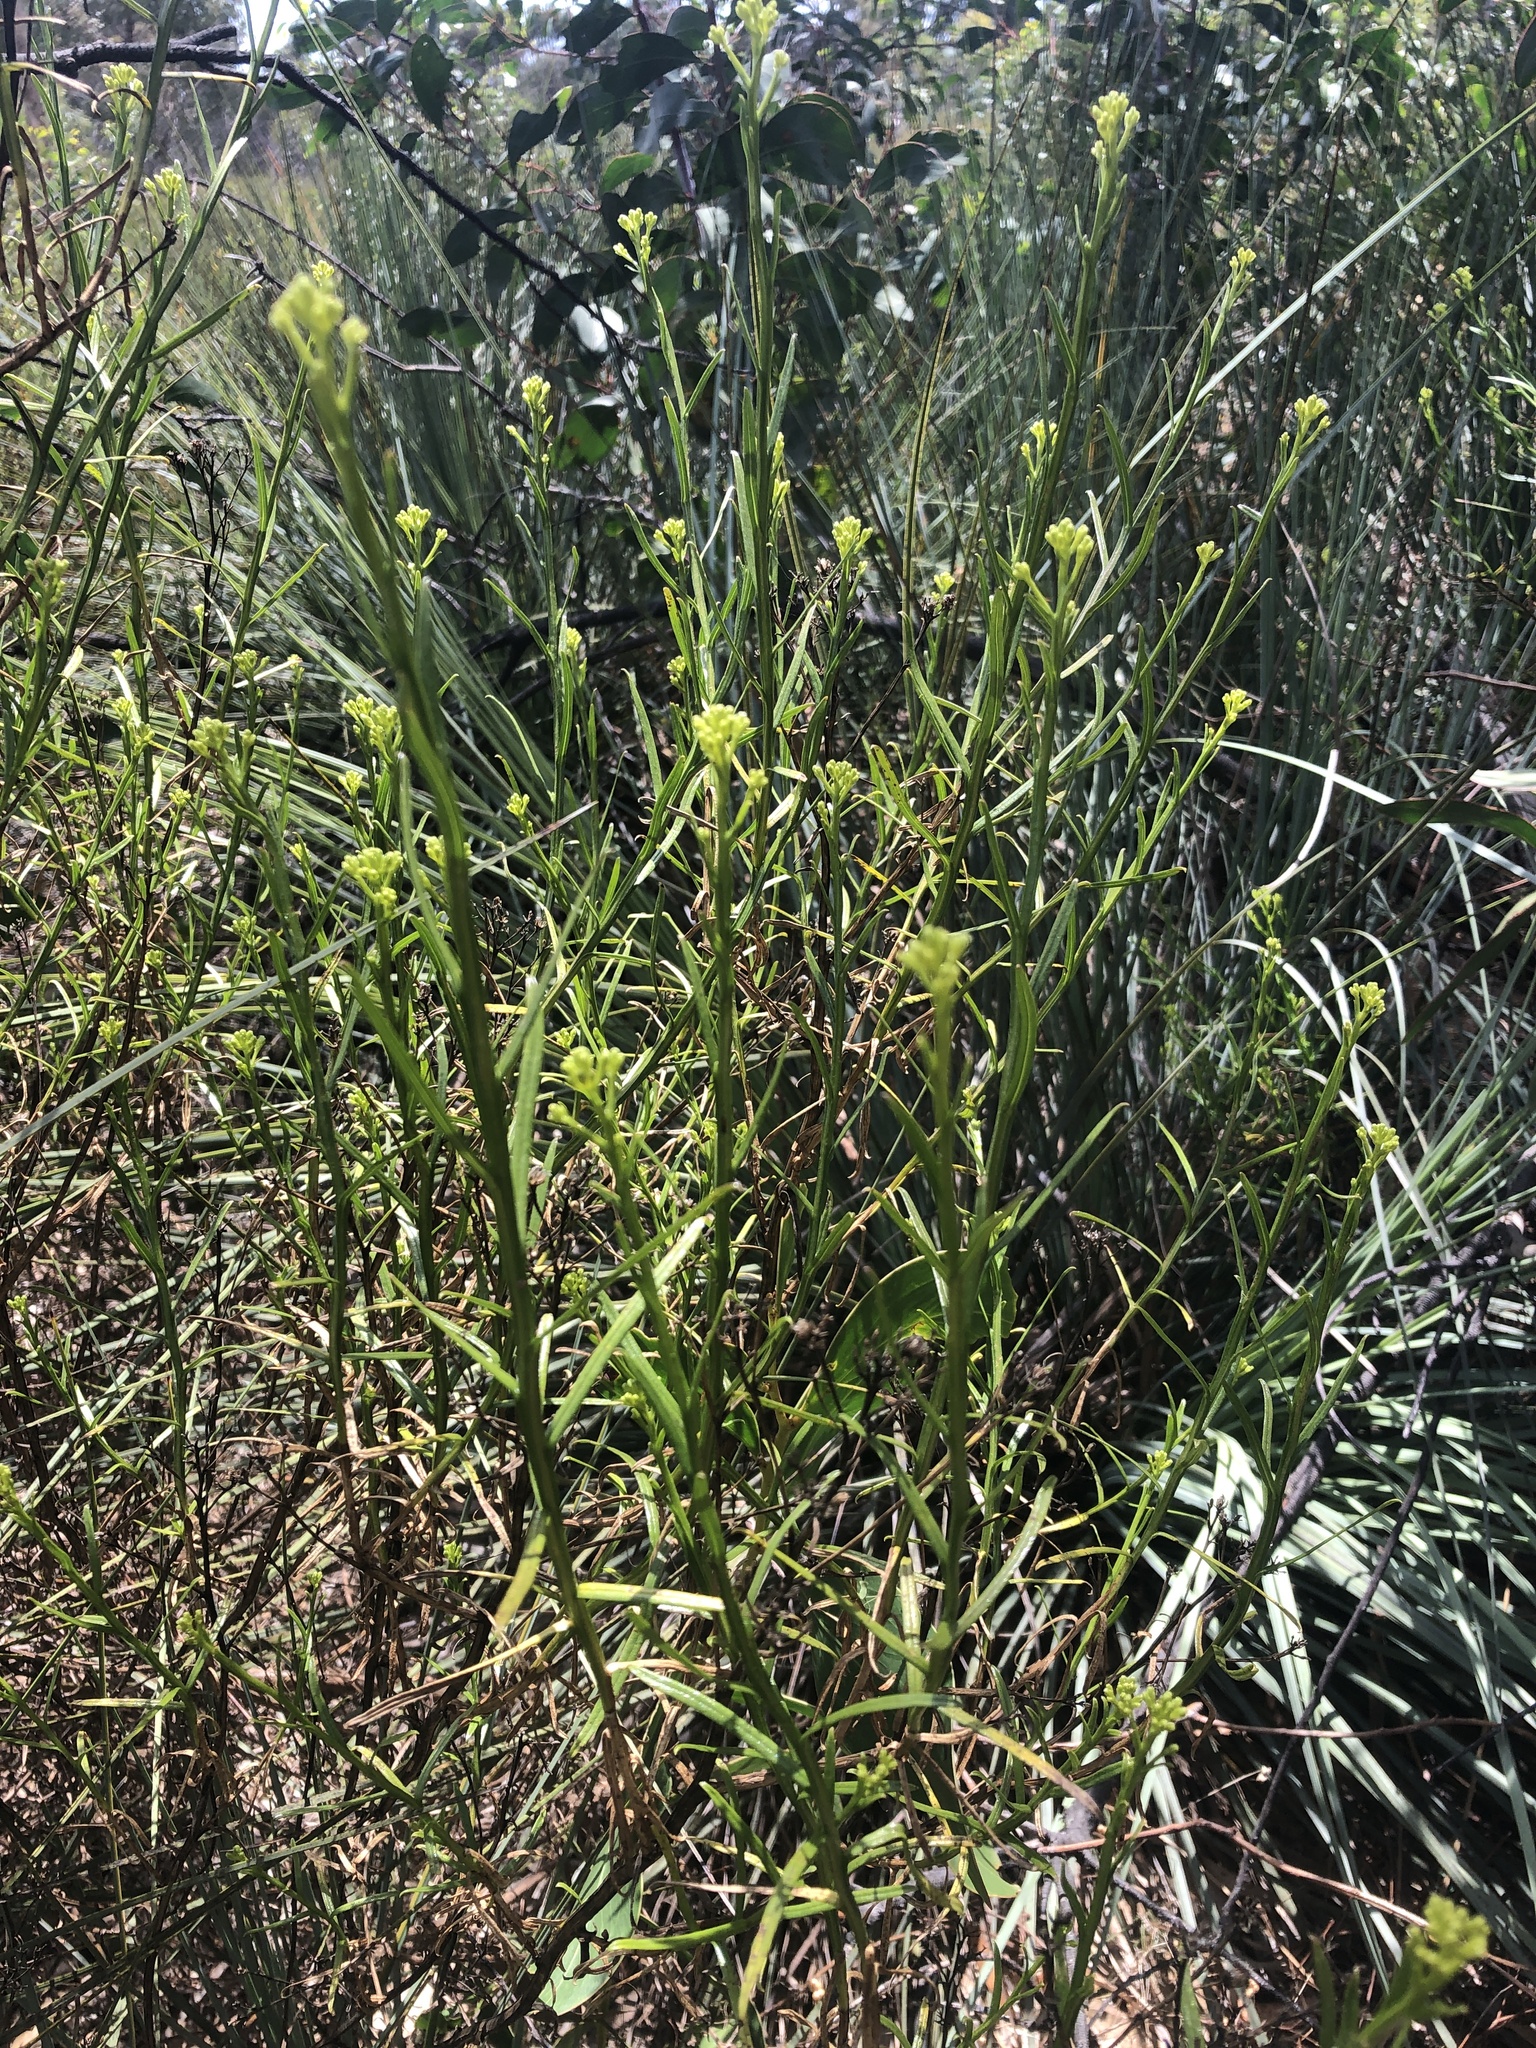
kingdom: Plantae
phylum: Tracheophyta
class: Magnoliopsida
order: Asterales
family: Asteraceae
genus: Ixodia
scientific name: Ixodia achillaeoides
